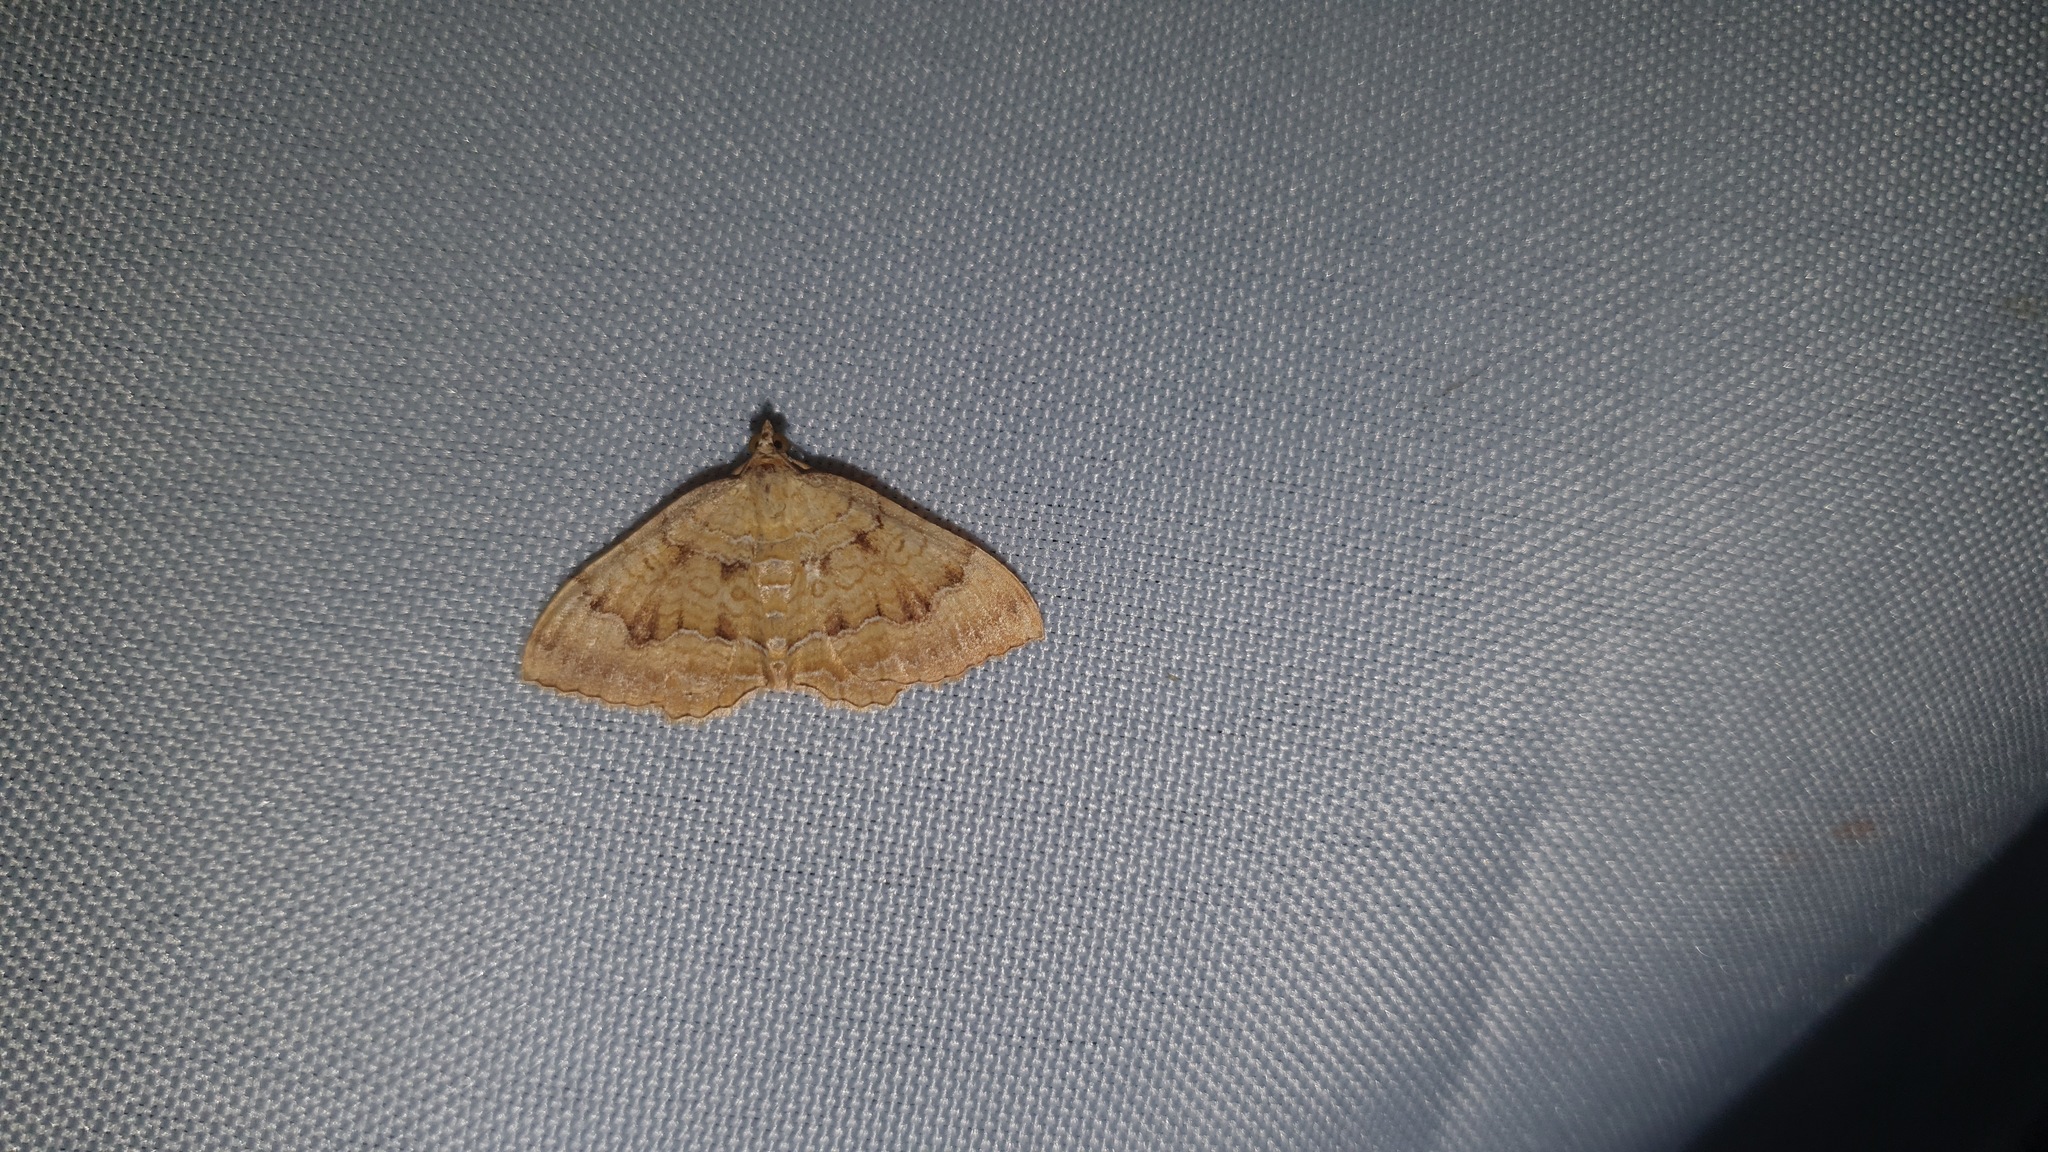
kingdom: Animalia
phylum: Arthropoda
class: Insecta
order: Lepidoptera
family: Geometridae
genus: Camptogramma
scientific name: Camptogramma bilineata
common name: Yellow shell
